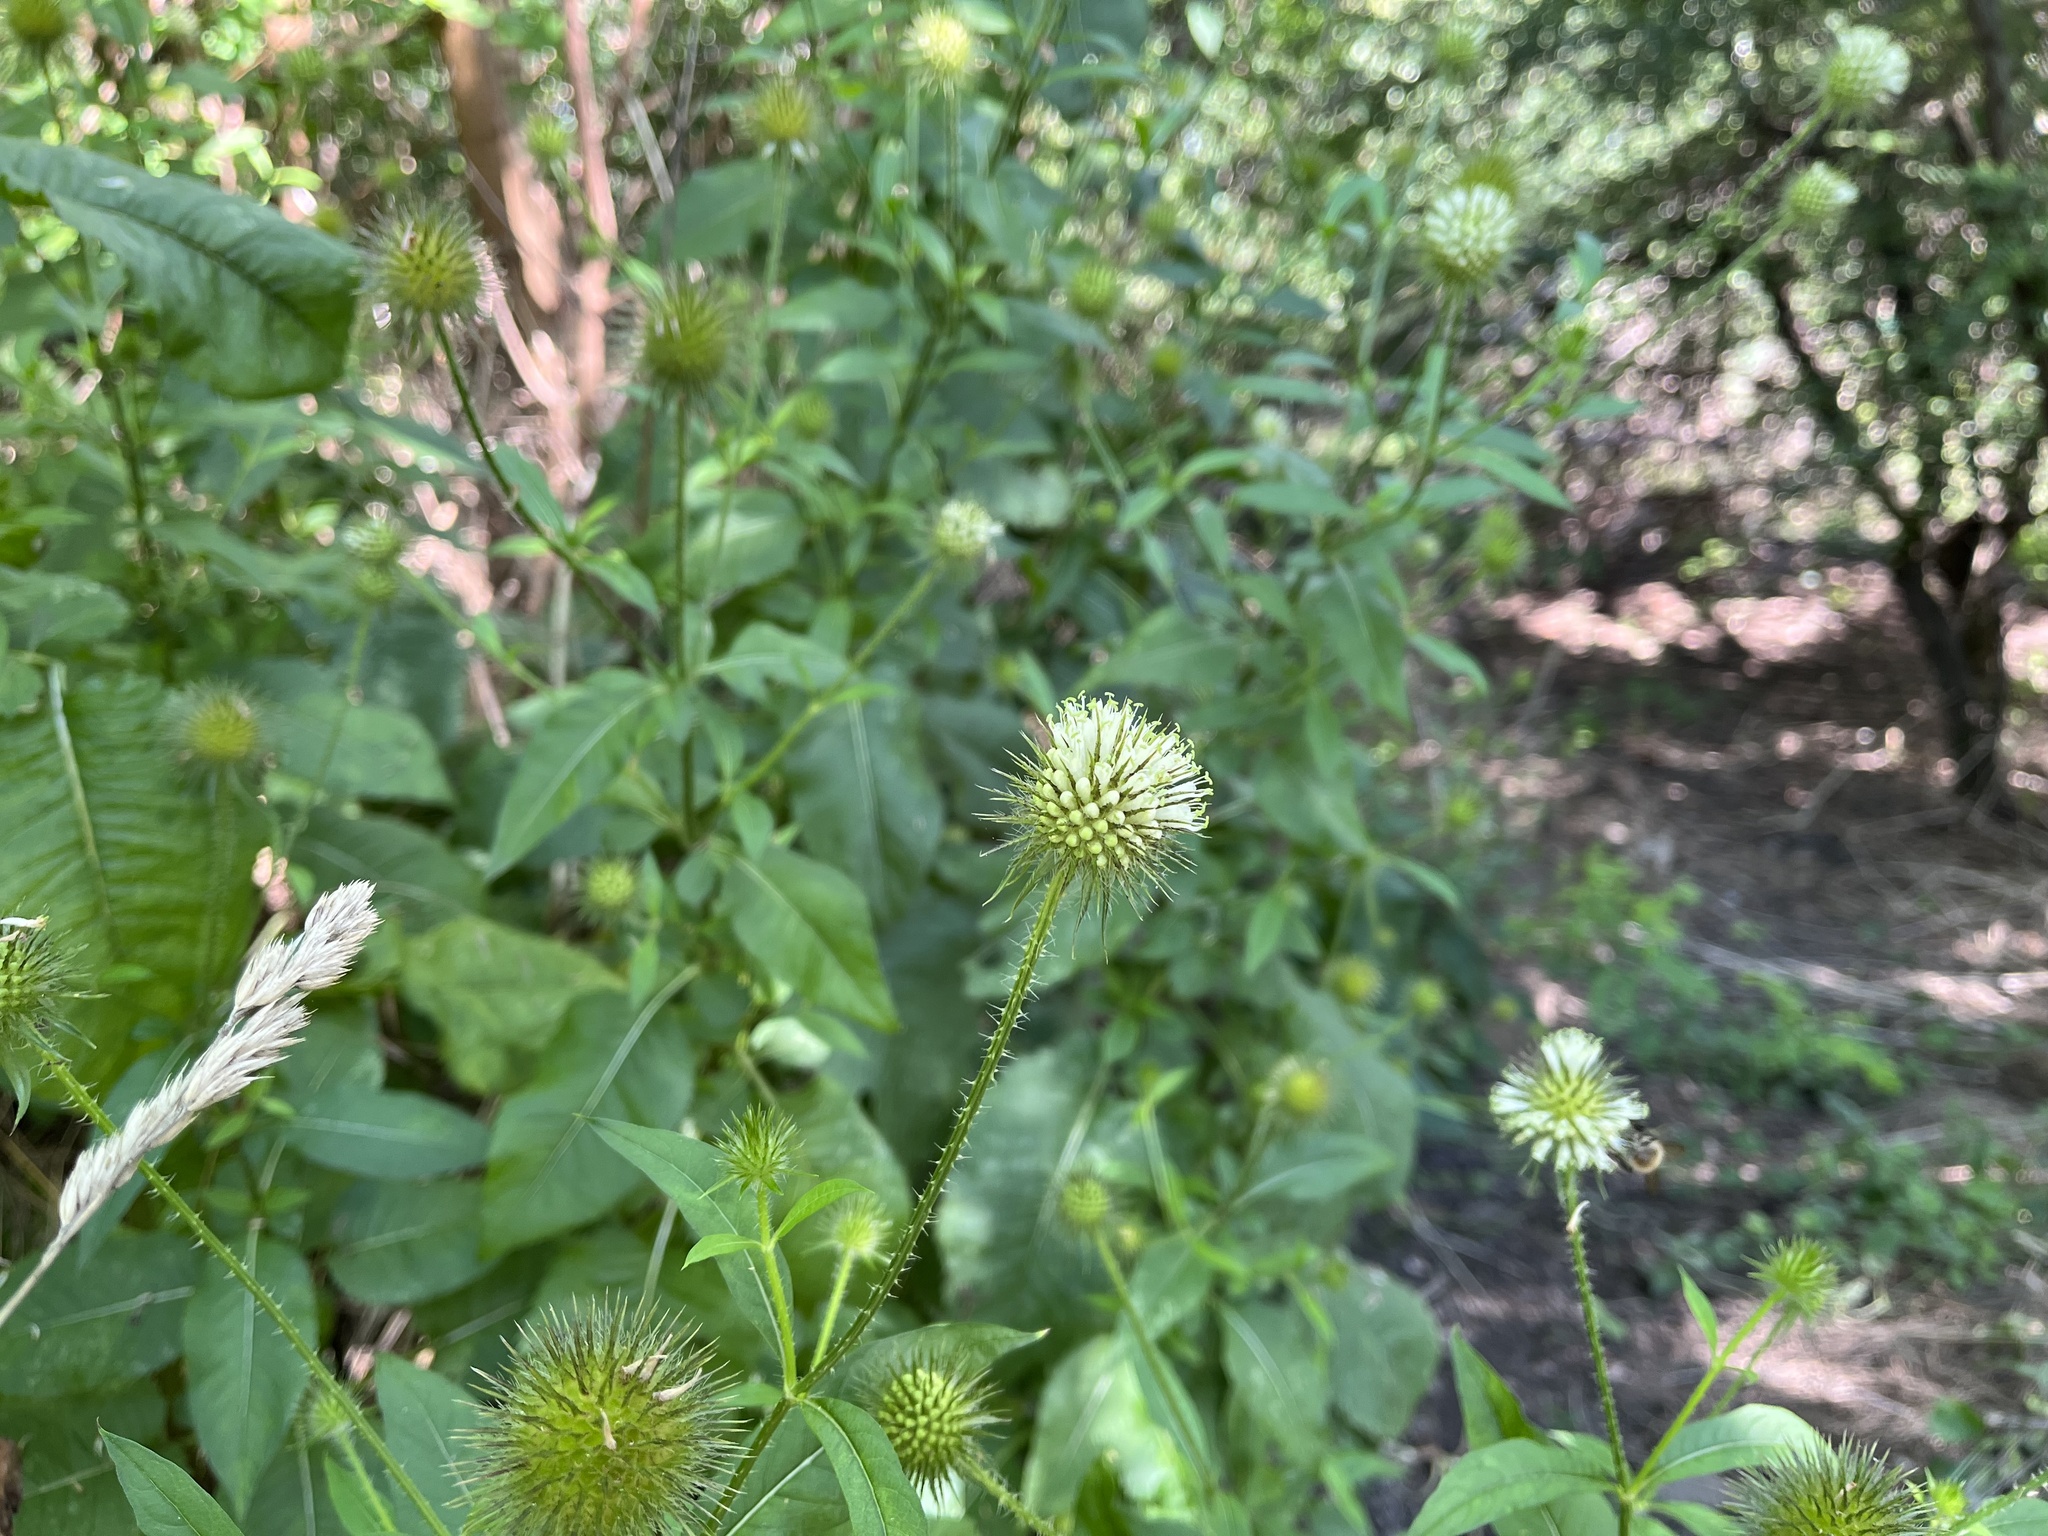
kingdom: Plantae
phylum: Tracheophyta
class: Magnoliopsida
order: Dipsacales
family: Caprifoliaceae
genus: Dipsacus
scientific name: Dipsacus strigosus
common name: Yellow-flowered teasel
